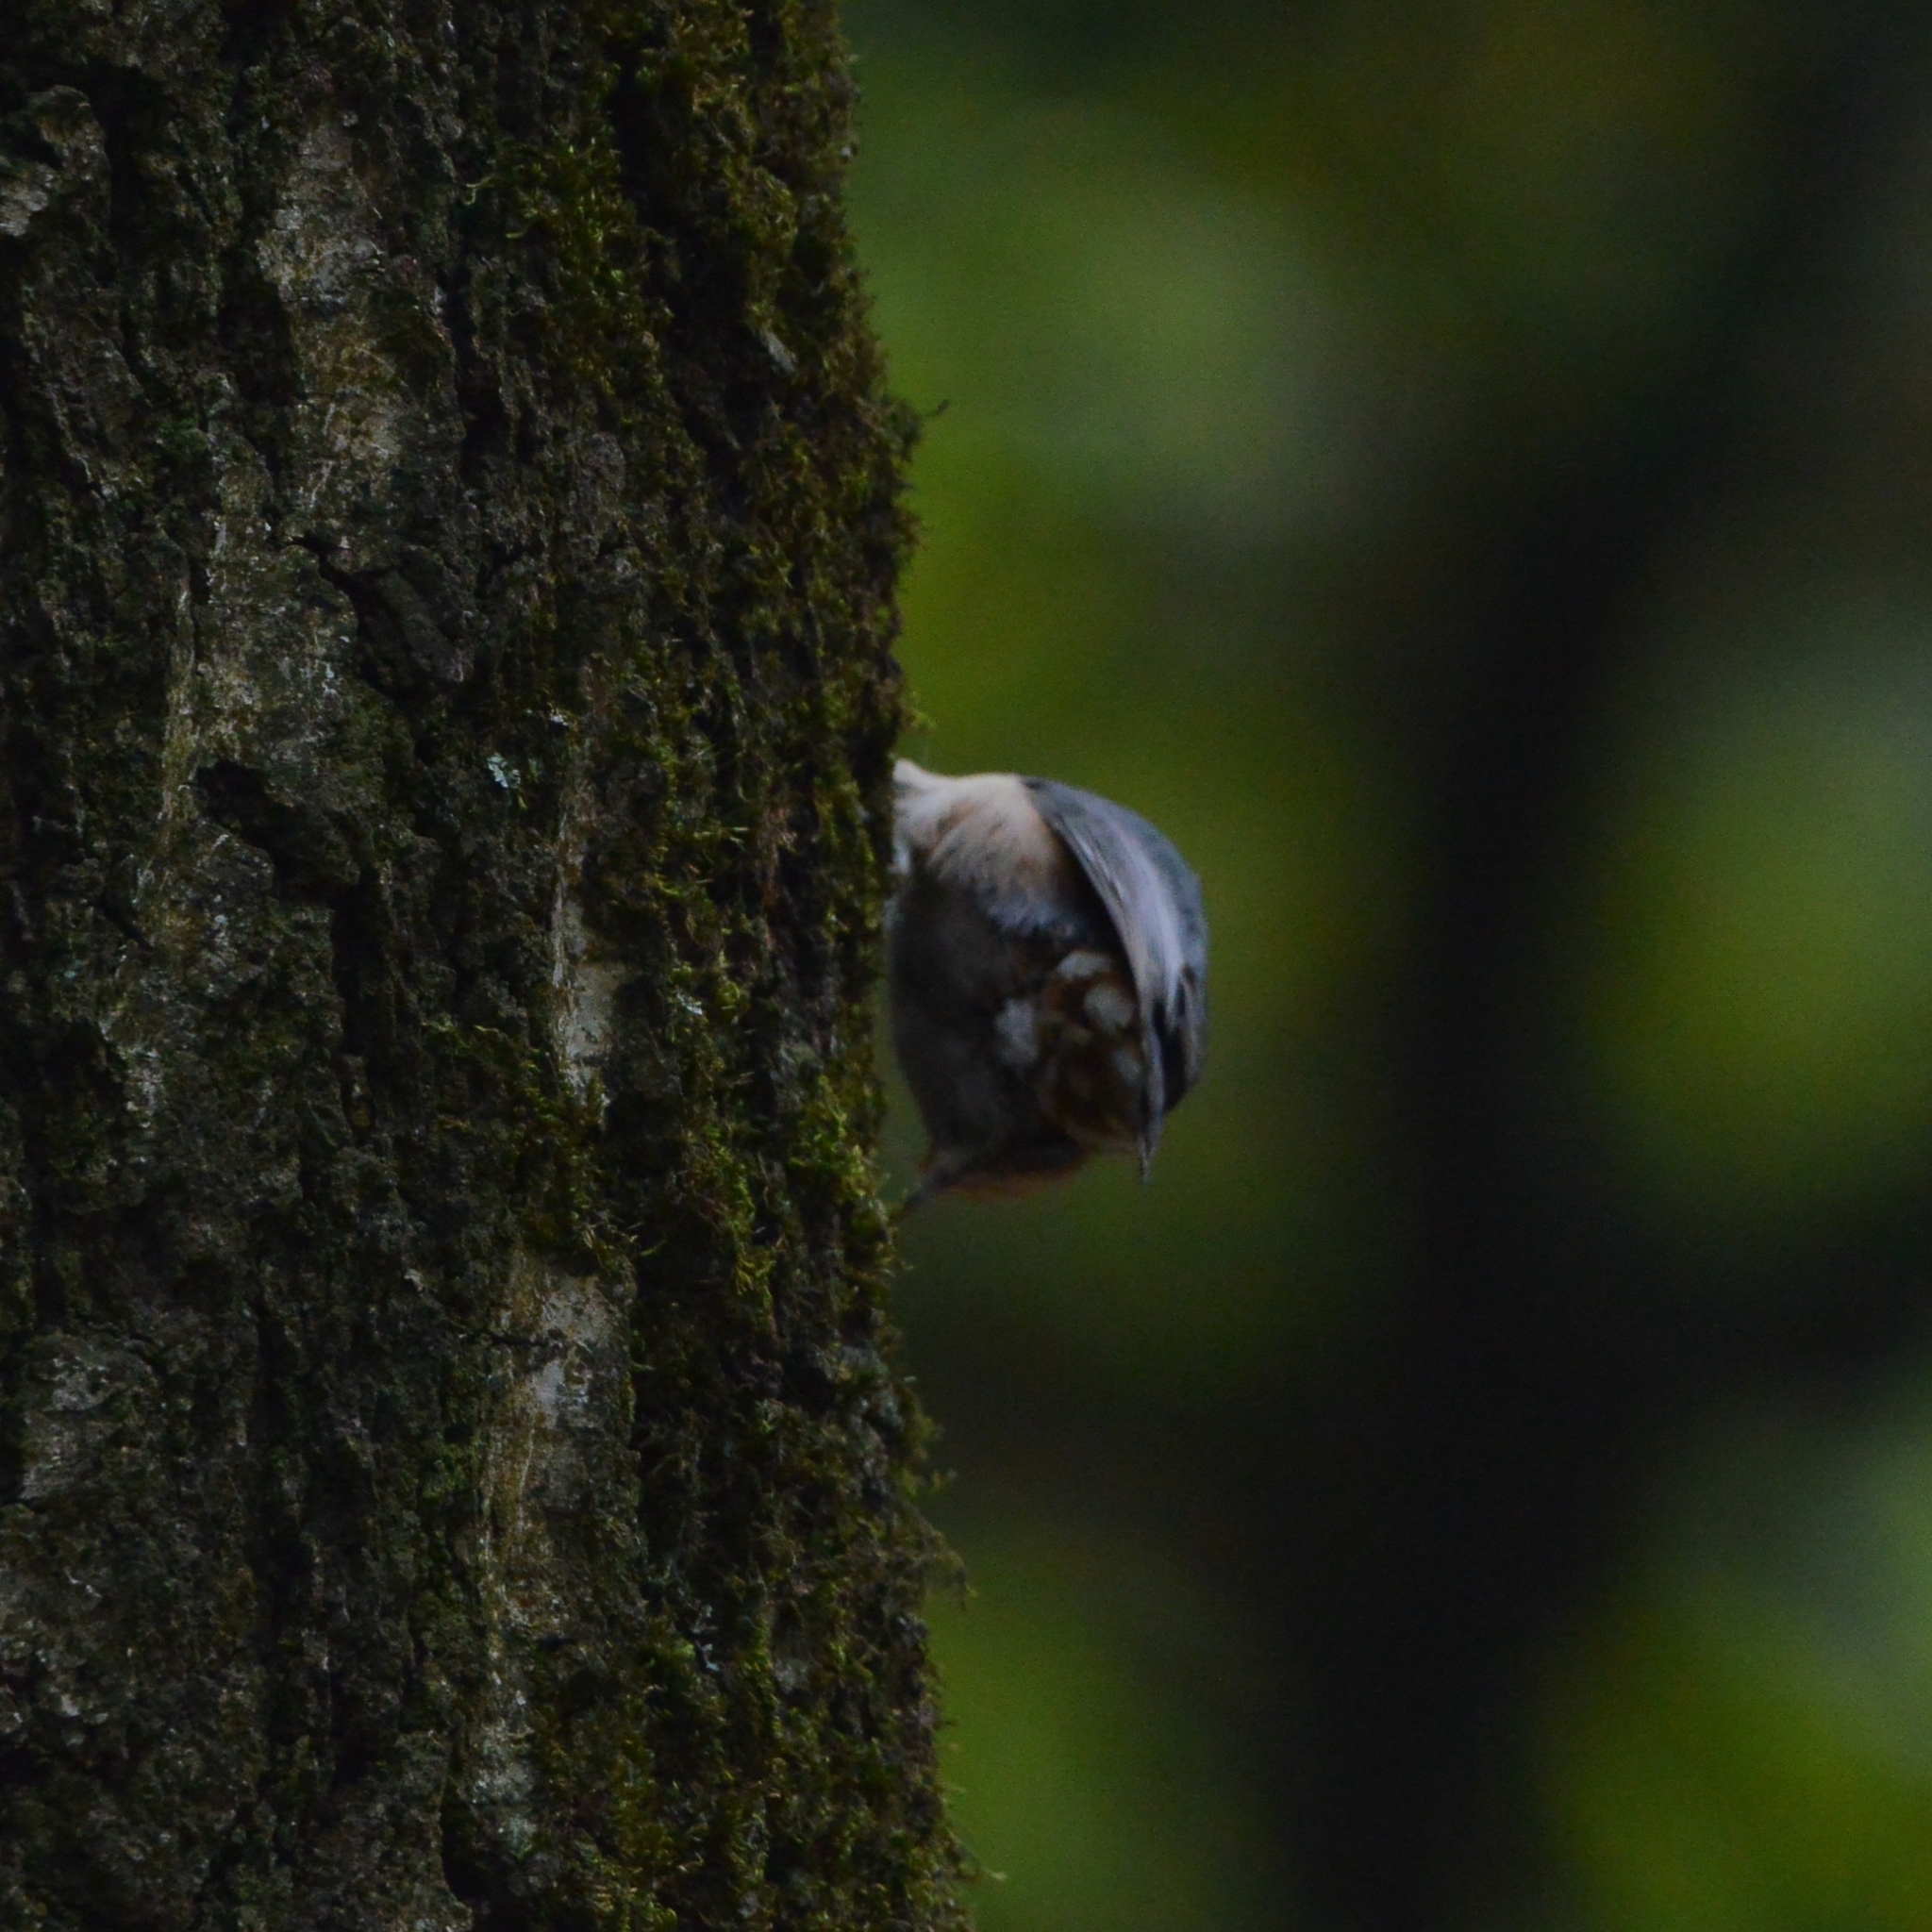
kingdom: Animalia
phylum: Chordata
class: Aves
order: Passeriformes
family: Sittidae
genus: Sitta
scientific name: Sitta europaea
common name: Eurasian nuthatch
